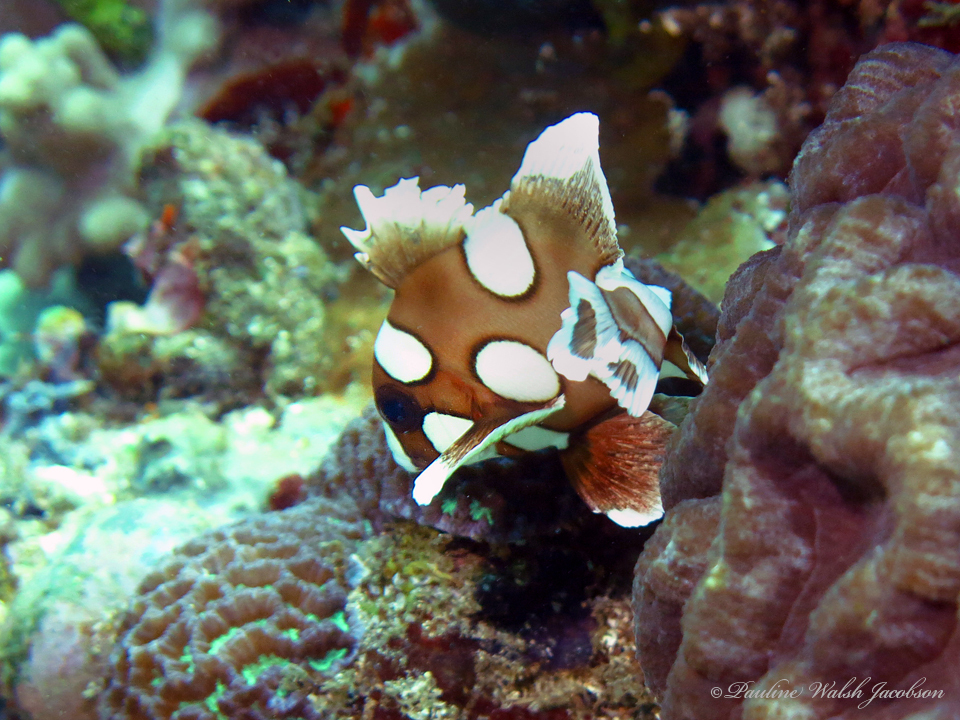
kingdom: Animalia
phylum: Chordata
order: Perciformes
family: Haemulidae
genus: Plectorhinchus
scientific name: Plectorhinchus chaetodonoides
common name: Harlequin sweetlips
